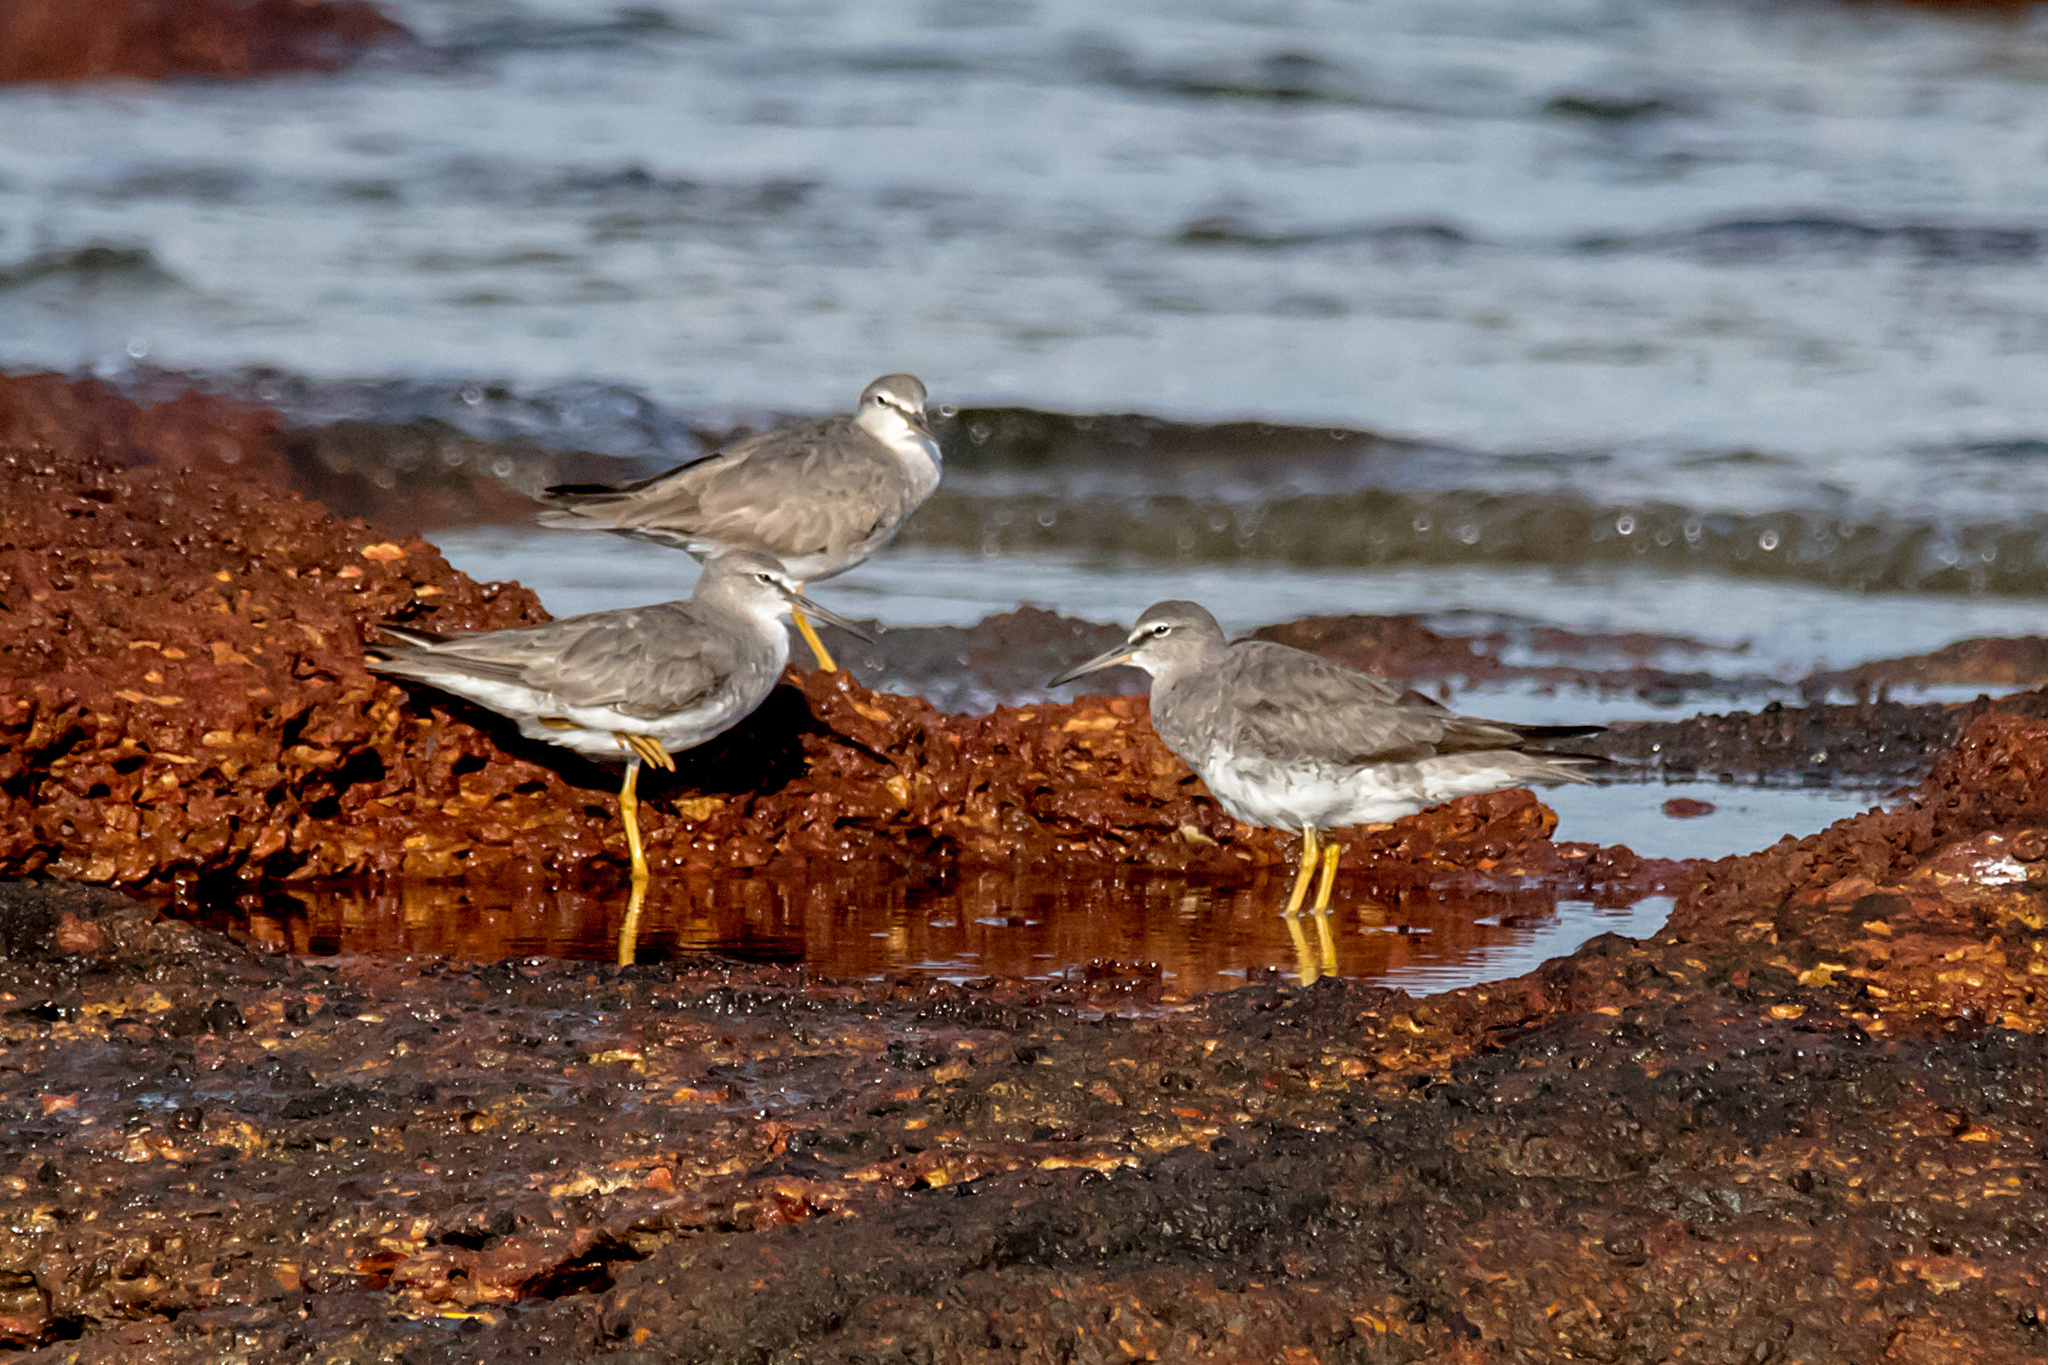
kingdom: Animalia
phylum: Chordata
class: Aves
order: Charadriiformes
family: Scolopacidae
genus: Tringa
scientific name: Tringa brevipes
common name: Grey-tailed tattler
